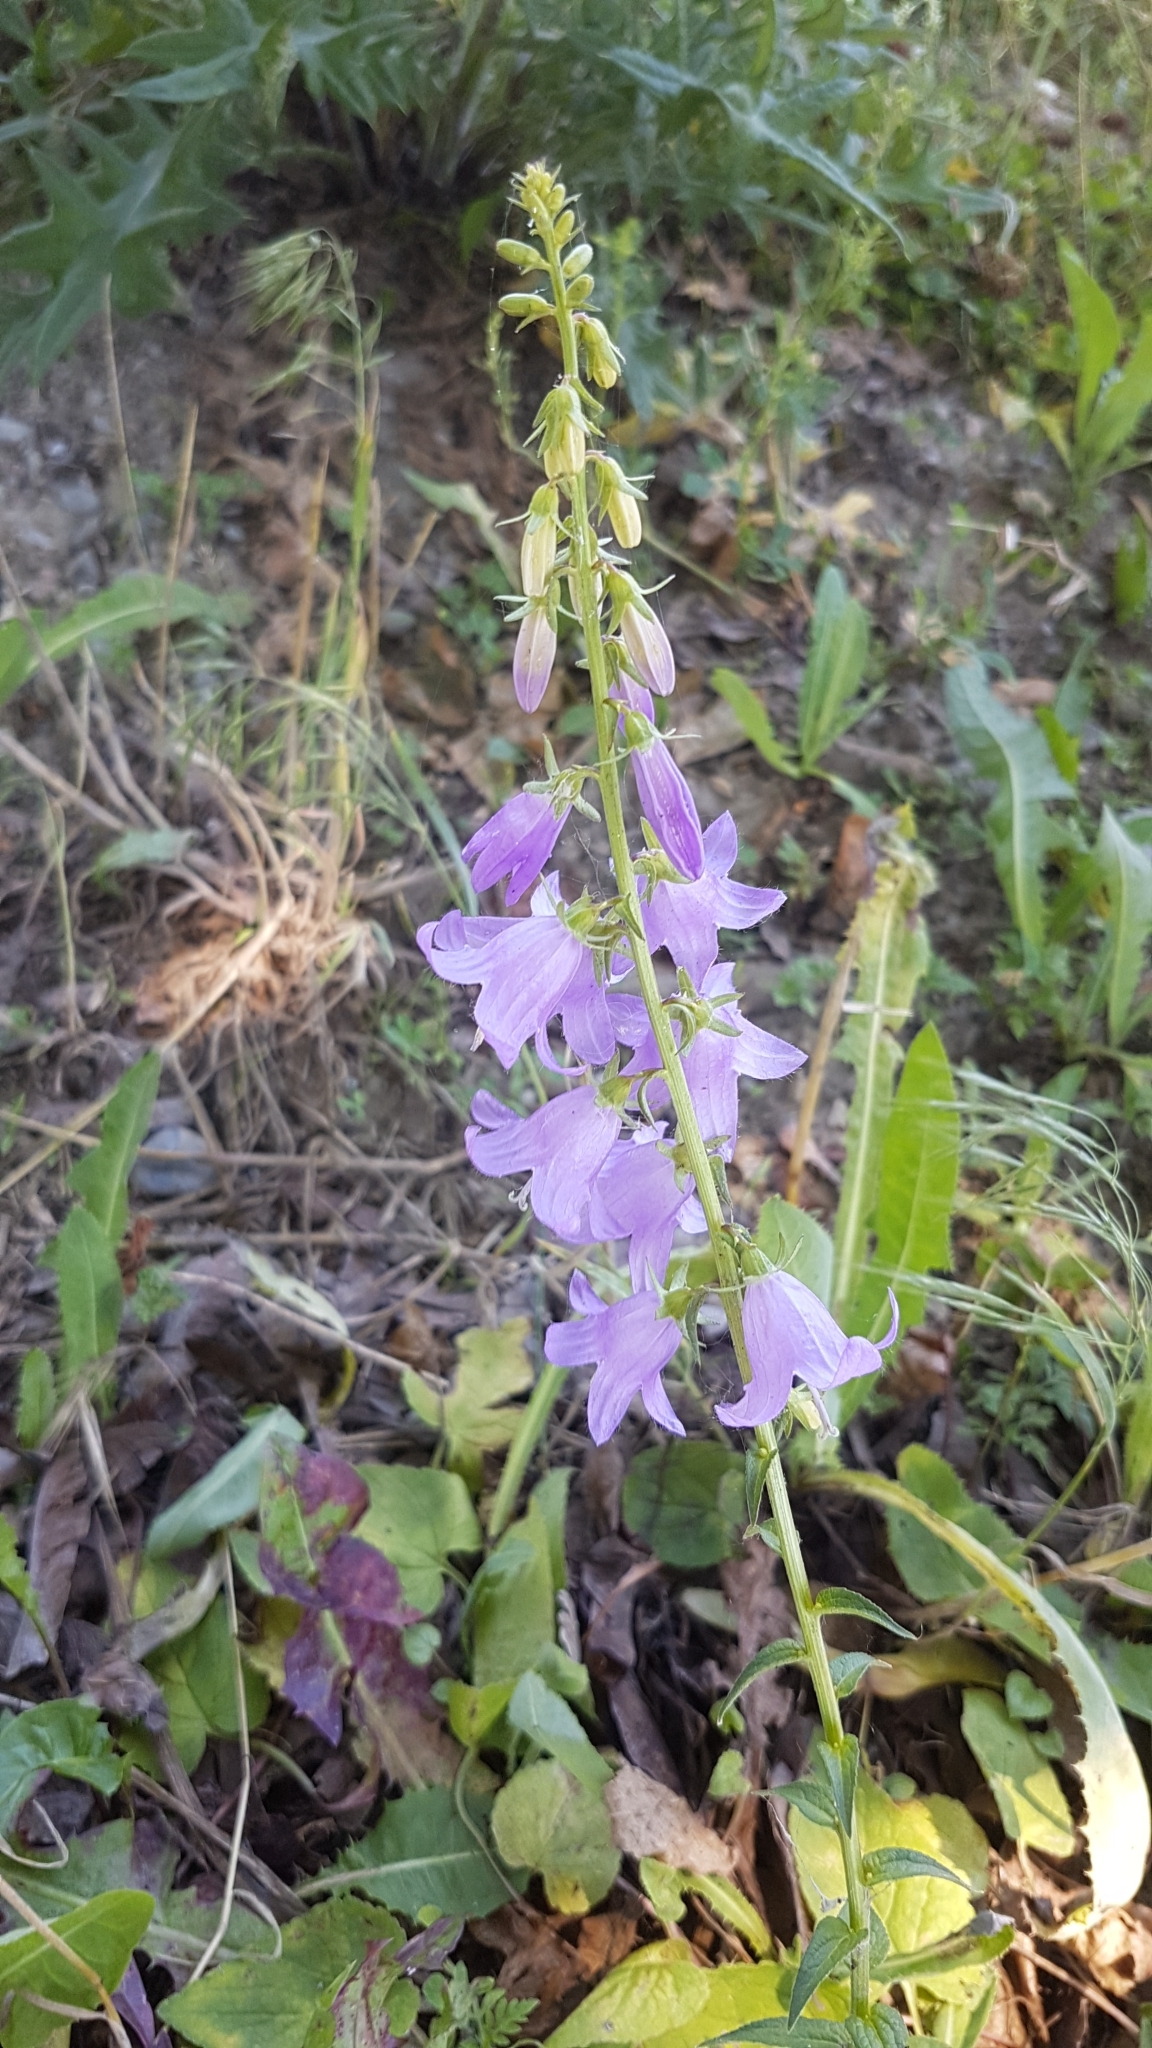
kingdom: Plantae
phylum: Tracheophyta
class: Magnoliopsida
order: Asterales
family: Campanulaceae
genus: Campanula
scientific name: Campanula rapunculoides
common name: Creeping bellflower
